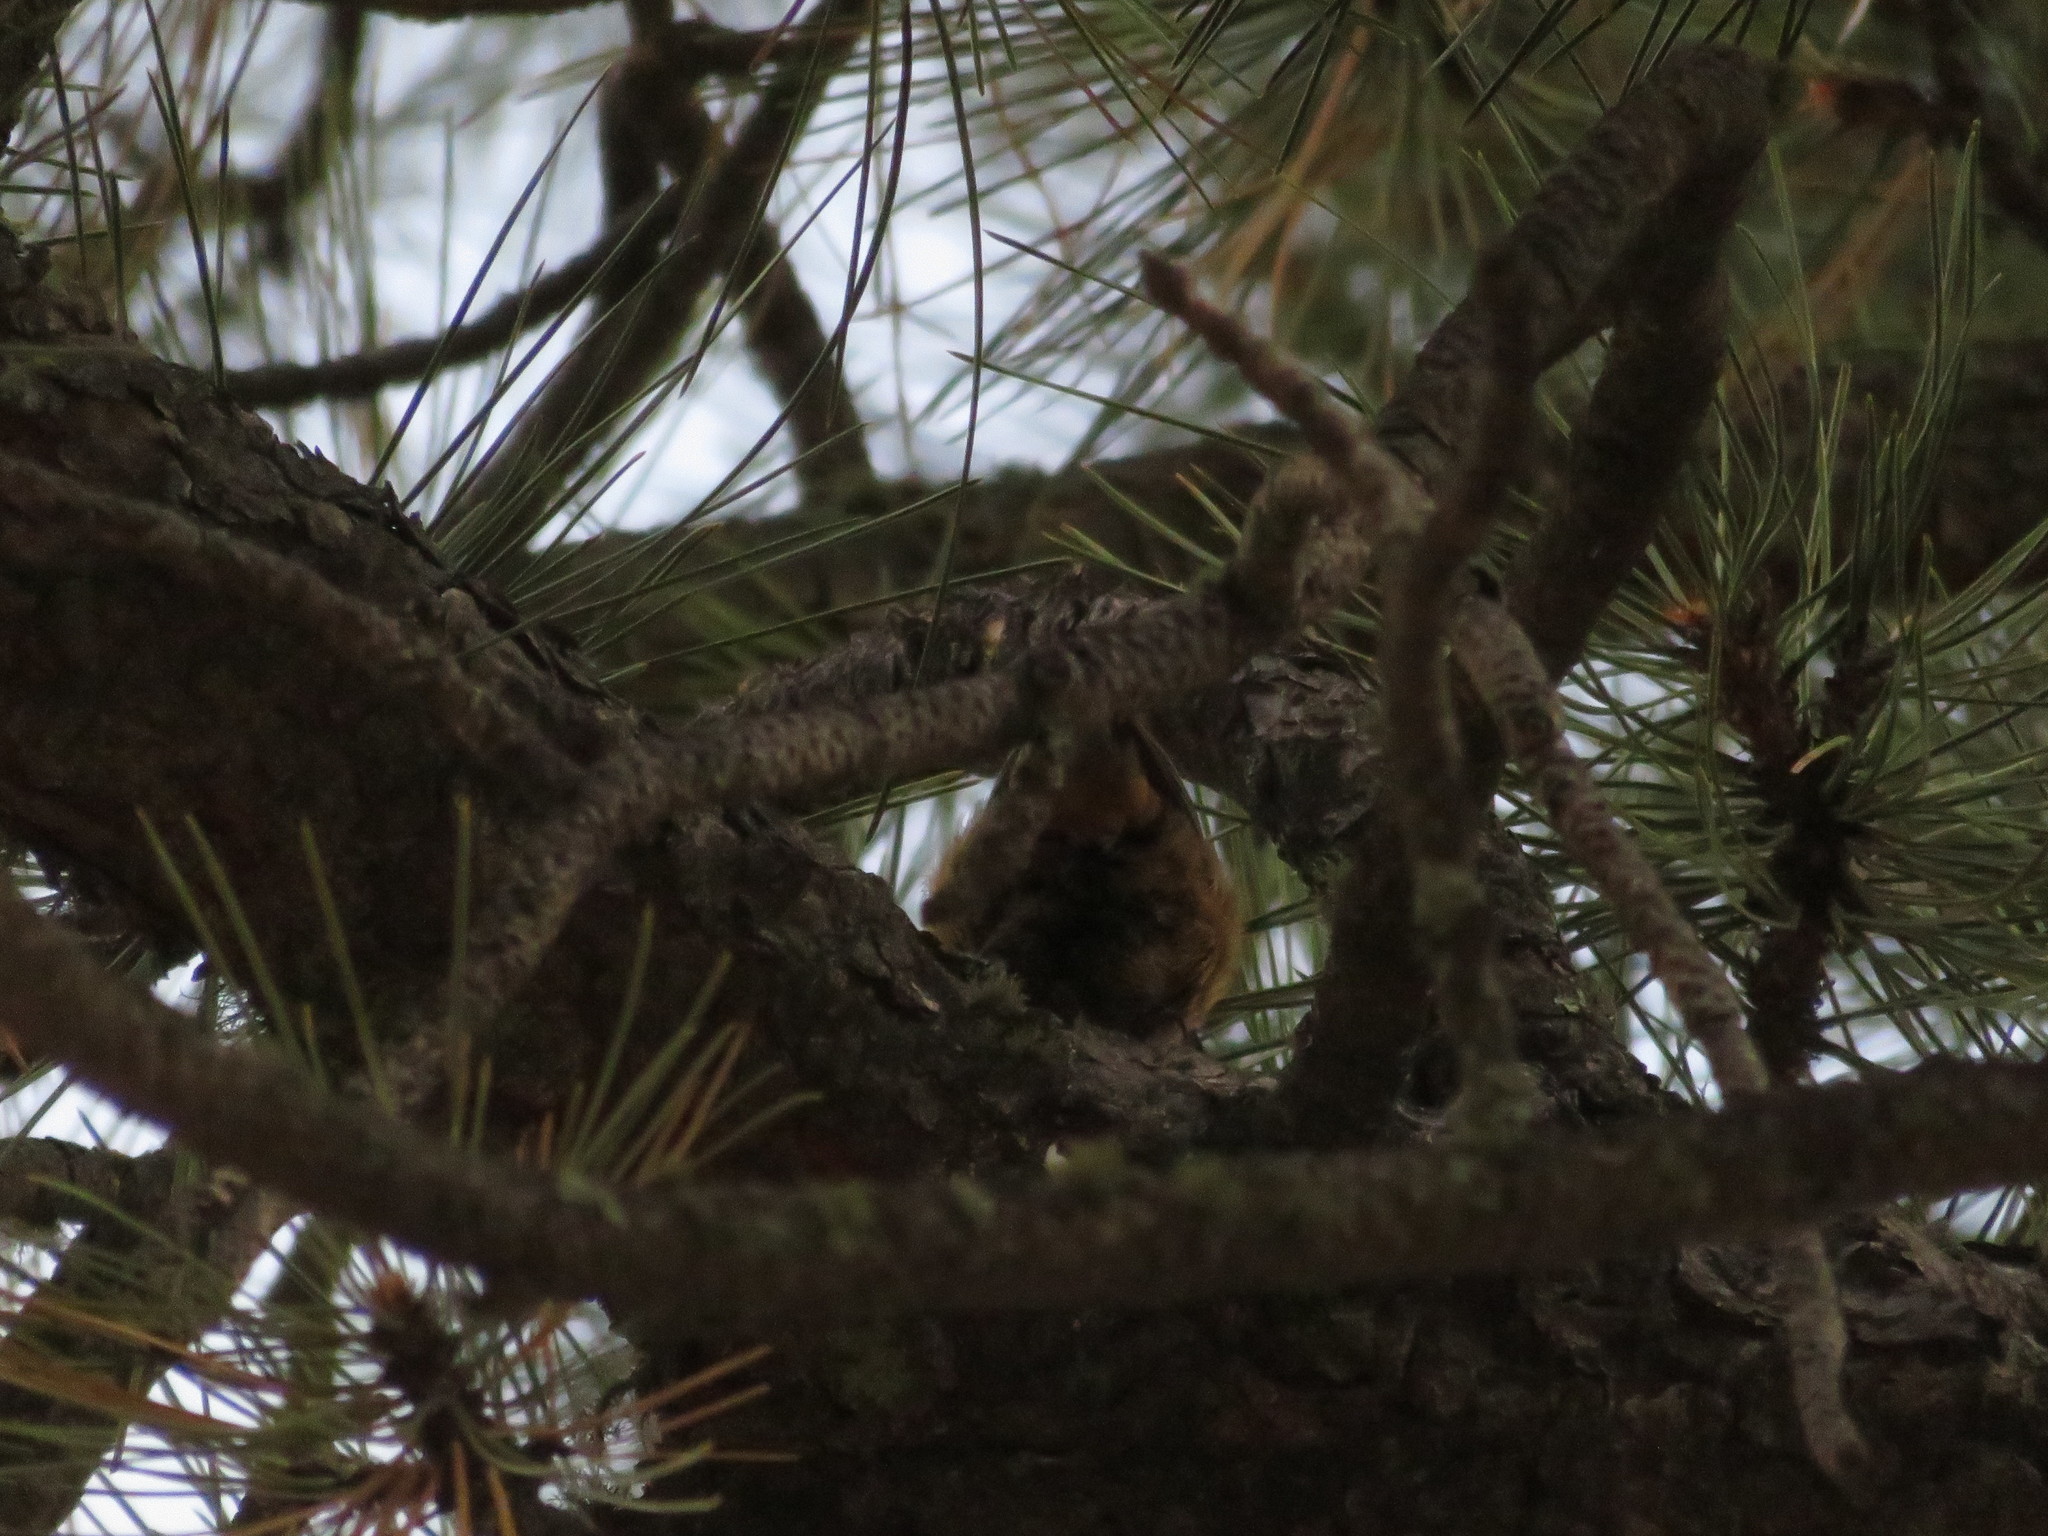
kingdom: Animalia
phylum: Chordata
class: Aves
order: Passeriformes
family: Sittidae
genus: Sitta
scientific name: Sitta canadensis
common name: Red-breasted nuthatch
